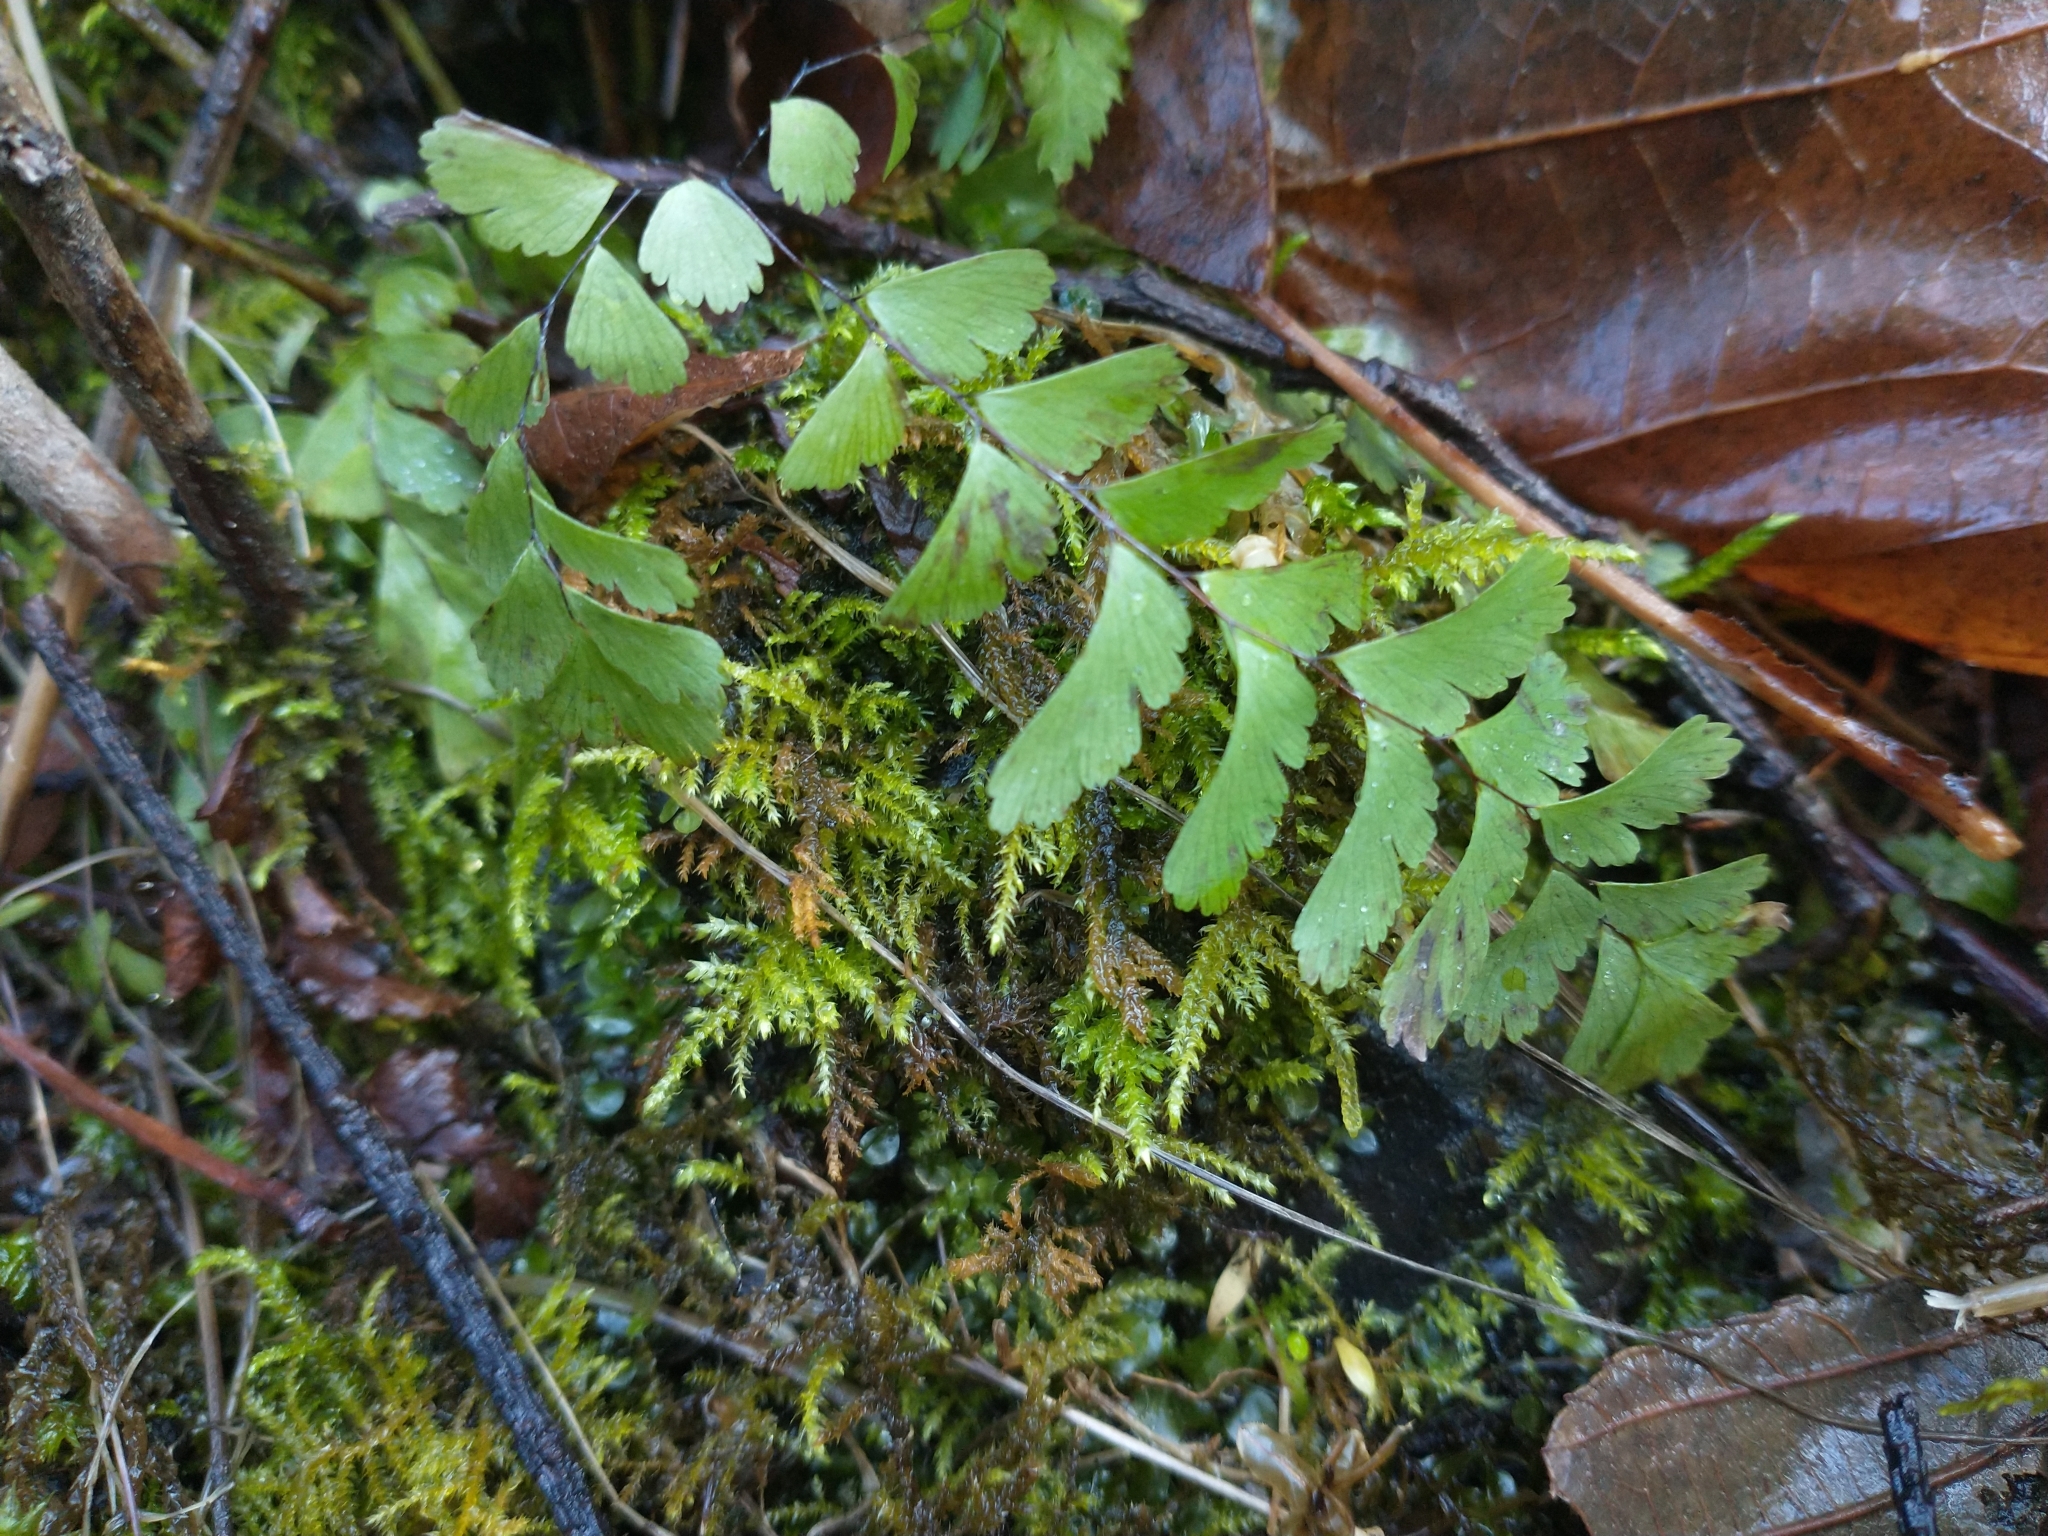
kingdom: Plantae
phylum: Tracheophyta
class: Polypodiopsida
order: Polypodiales
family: Pteridaceae
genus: Adiantum
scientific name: Adiantum aleuticum
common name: Aleutian maidenhair fern
